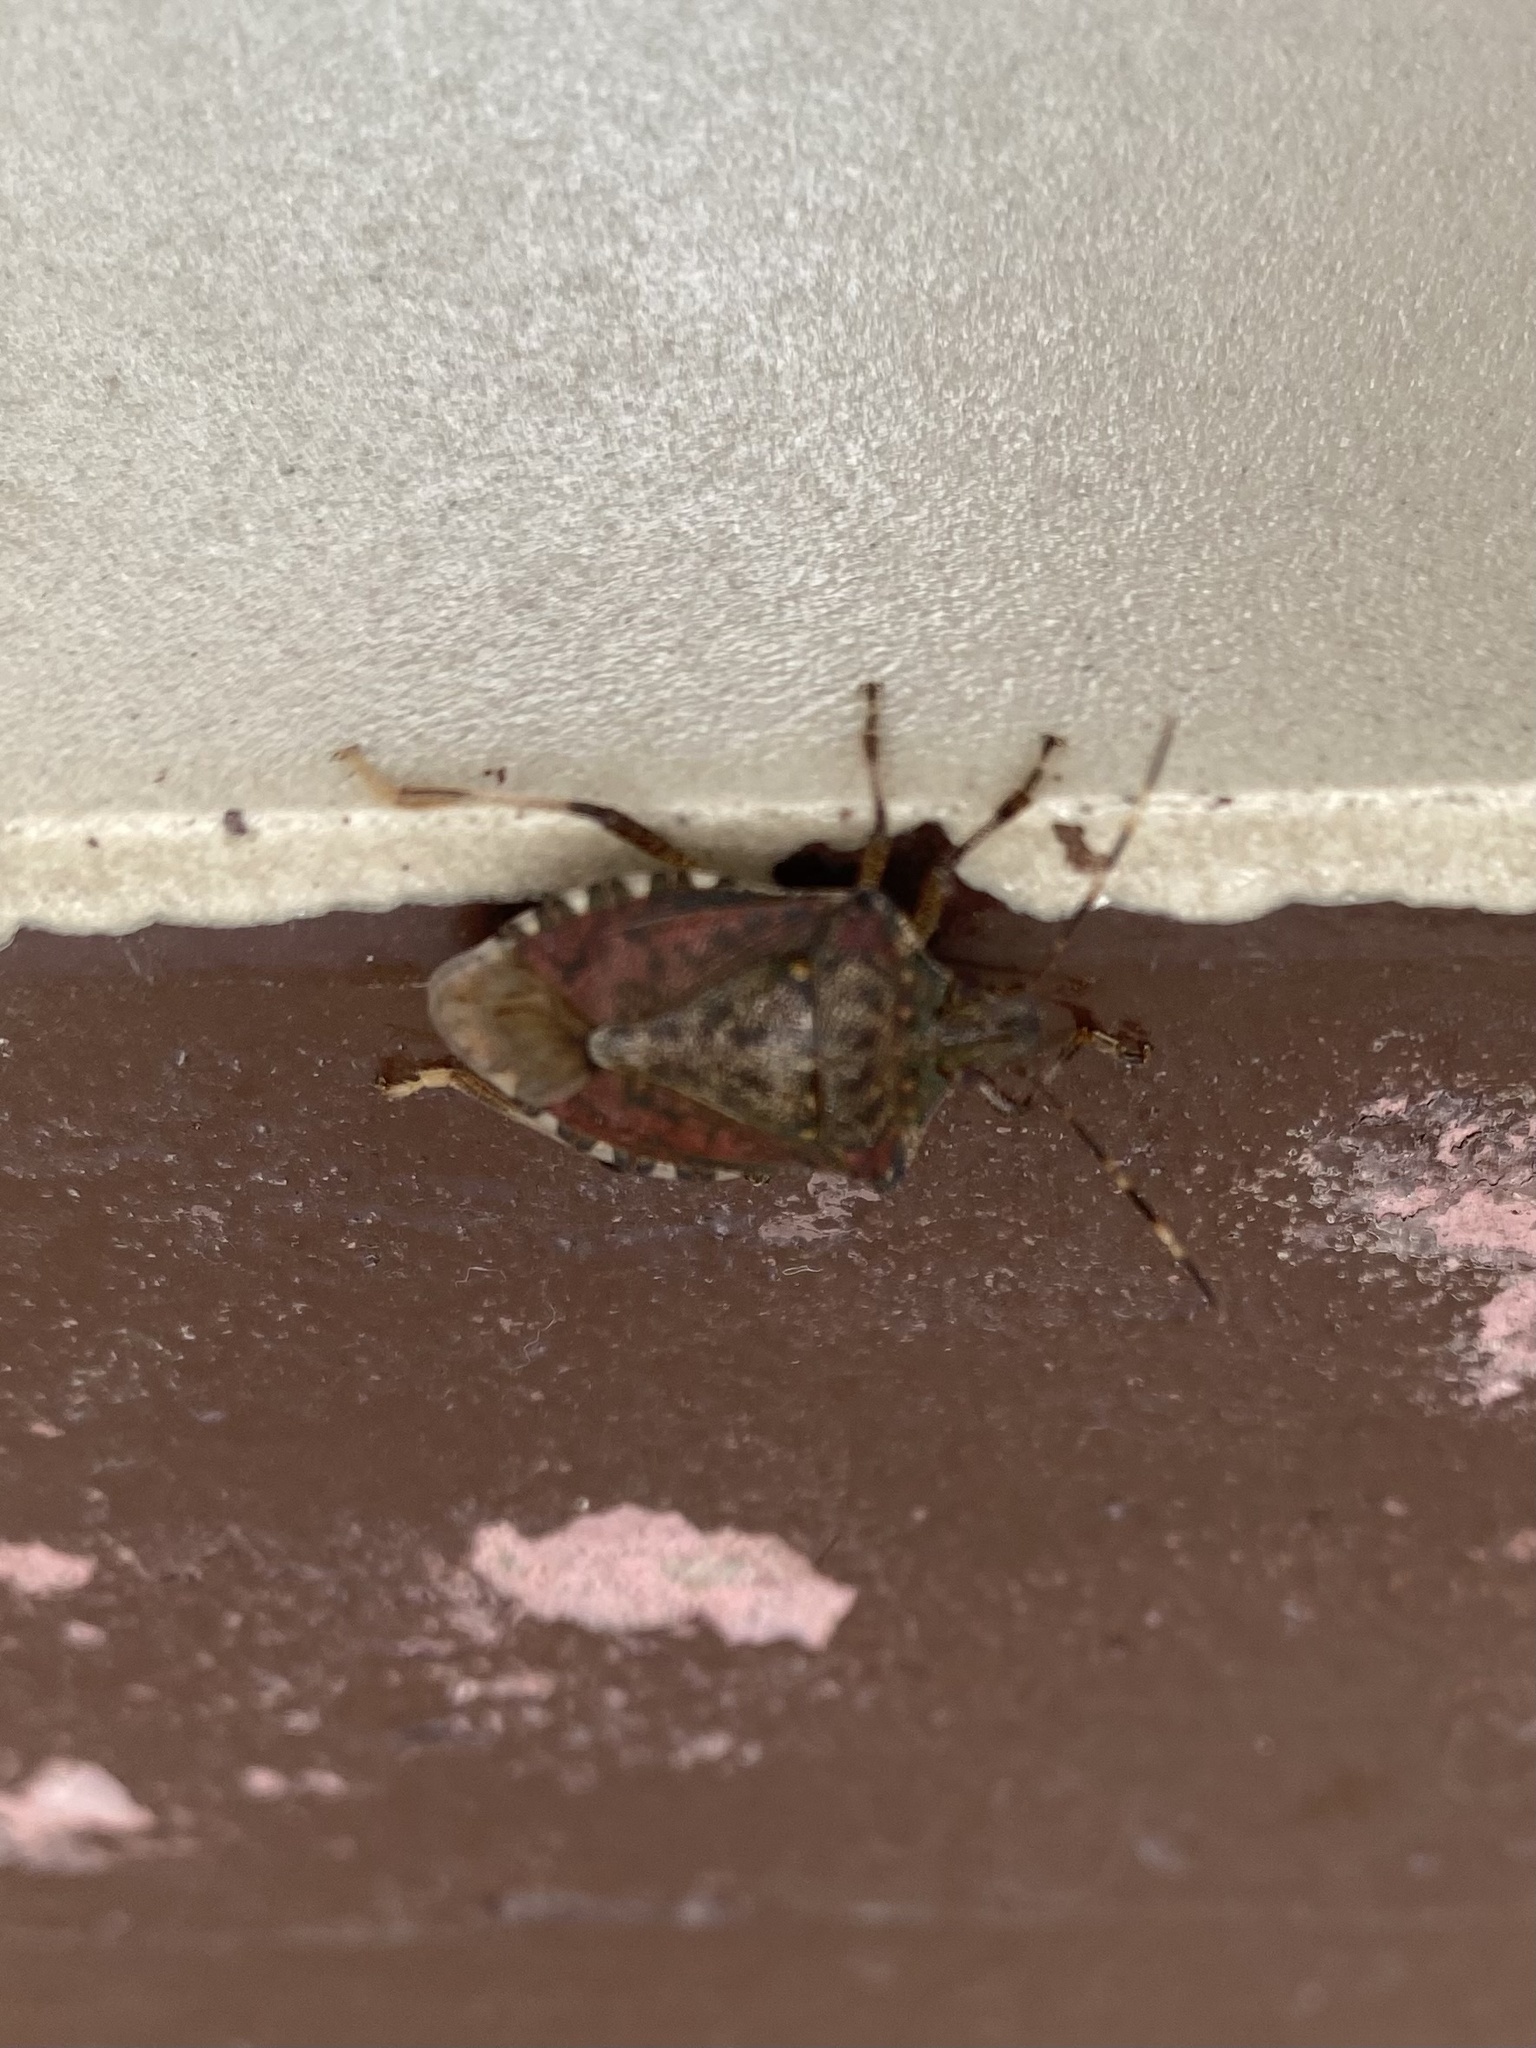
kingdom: Animalia
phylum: Arthropoda
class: Insecta
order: Hemiptera
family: Pentatomidae
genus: Halyomorpha
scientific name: Halyomorpha halys
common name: Brown marmorated stink bug
